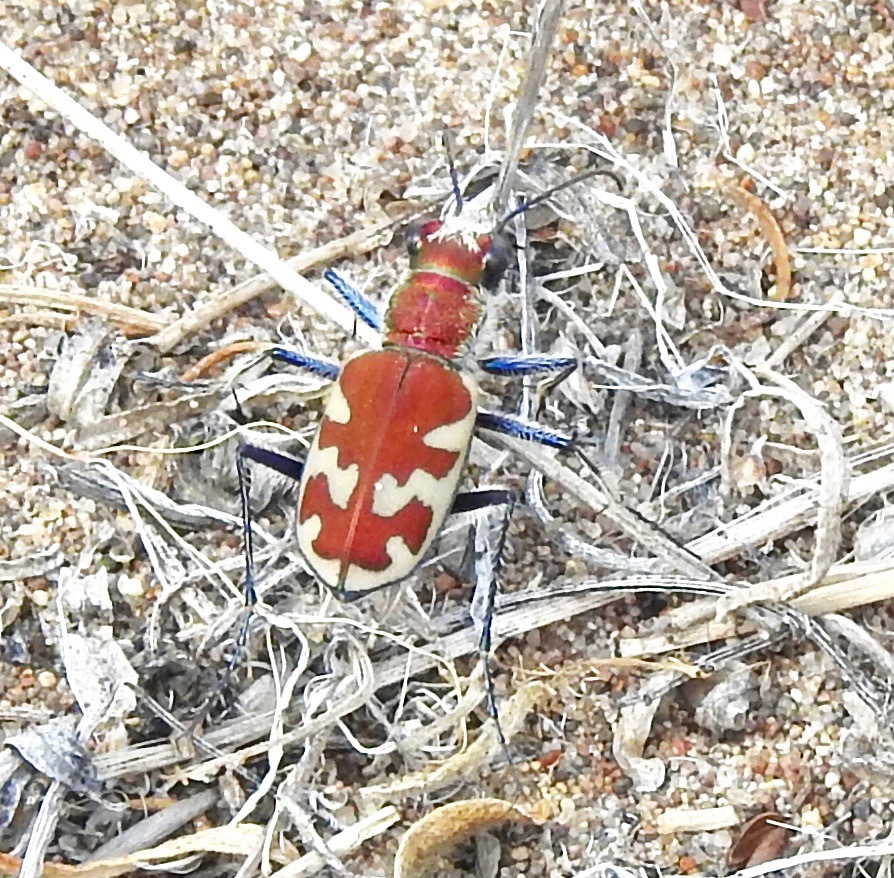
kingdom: Animalia
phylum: Arthropoda
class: Insecta
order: Coleoptera
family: Carabidae
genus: Cicindela
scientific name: Cicindela formosa
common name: Big sand tiger beetle
